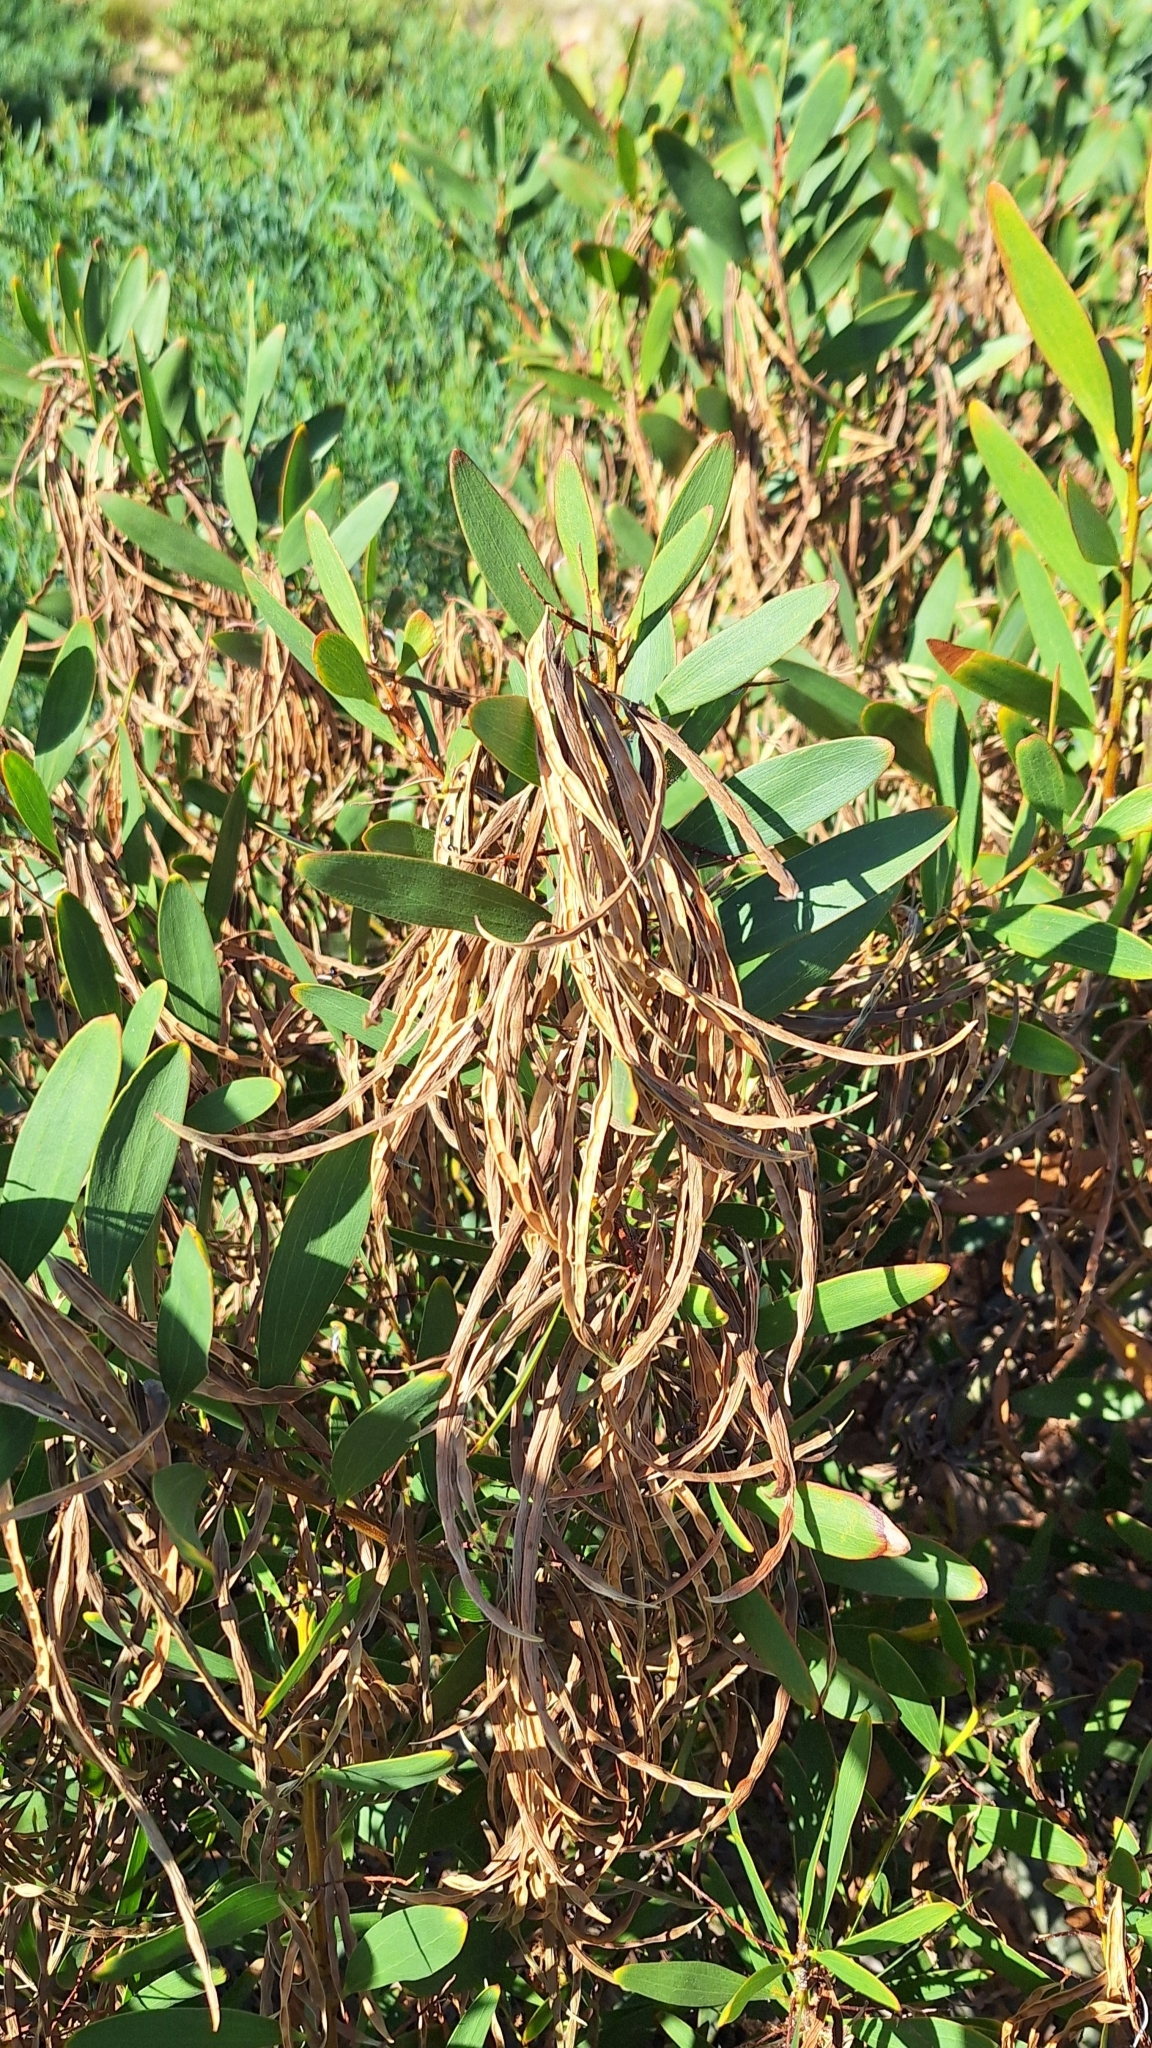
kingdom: Plantae
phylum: Tracheophyta
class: Magnoliopsida
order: Fabales
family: Fabaceae
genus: Acacia
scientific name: Acacia longifolia
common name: Sydney golden wattle
